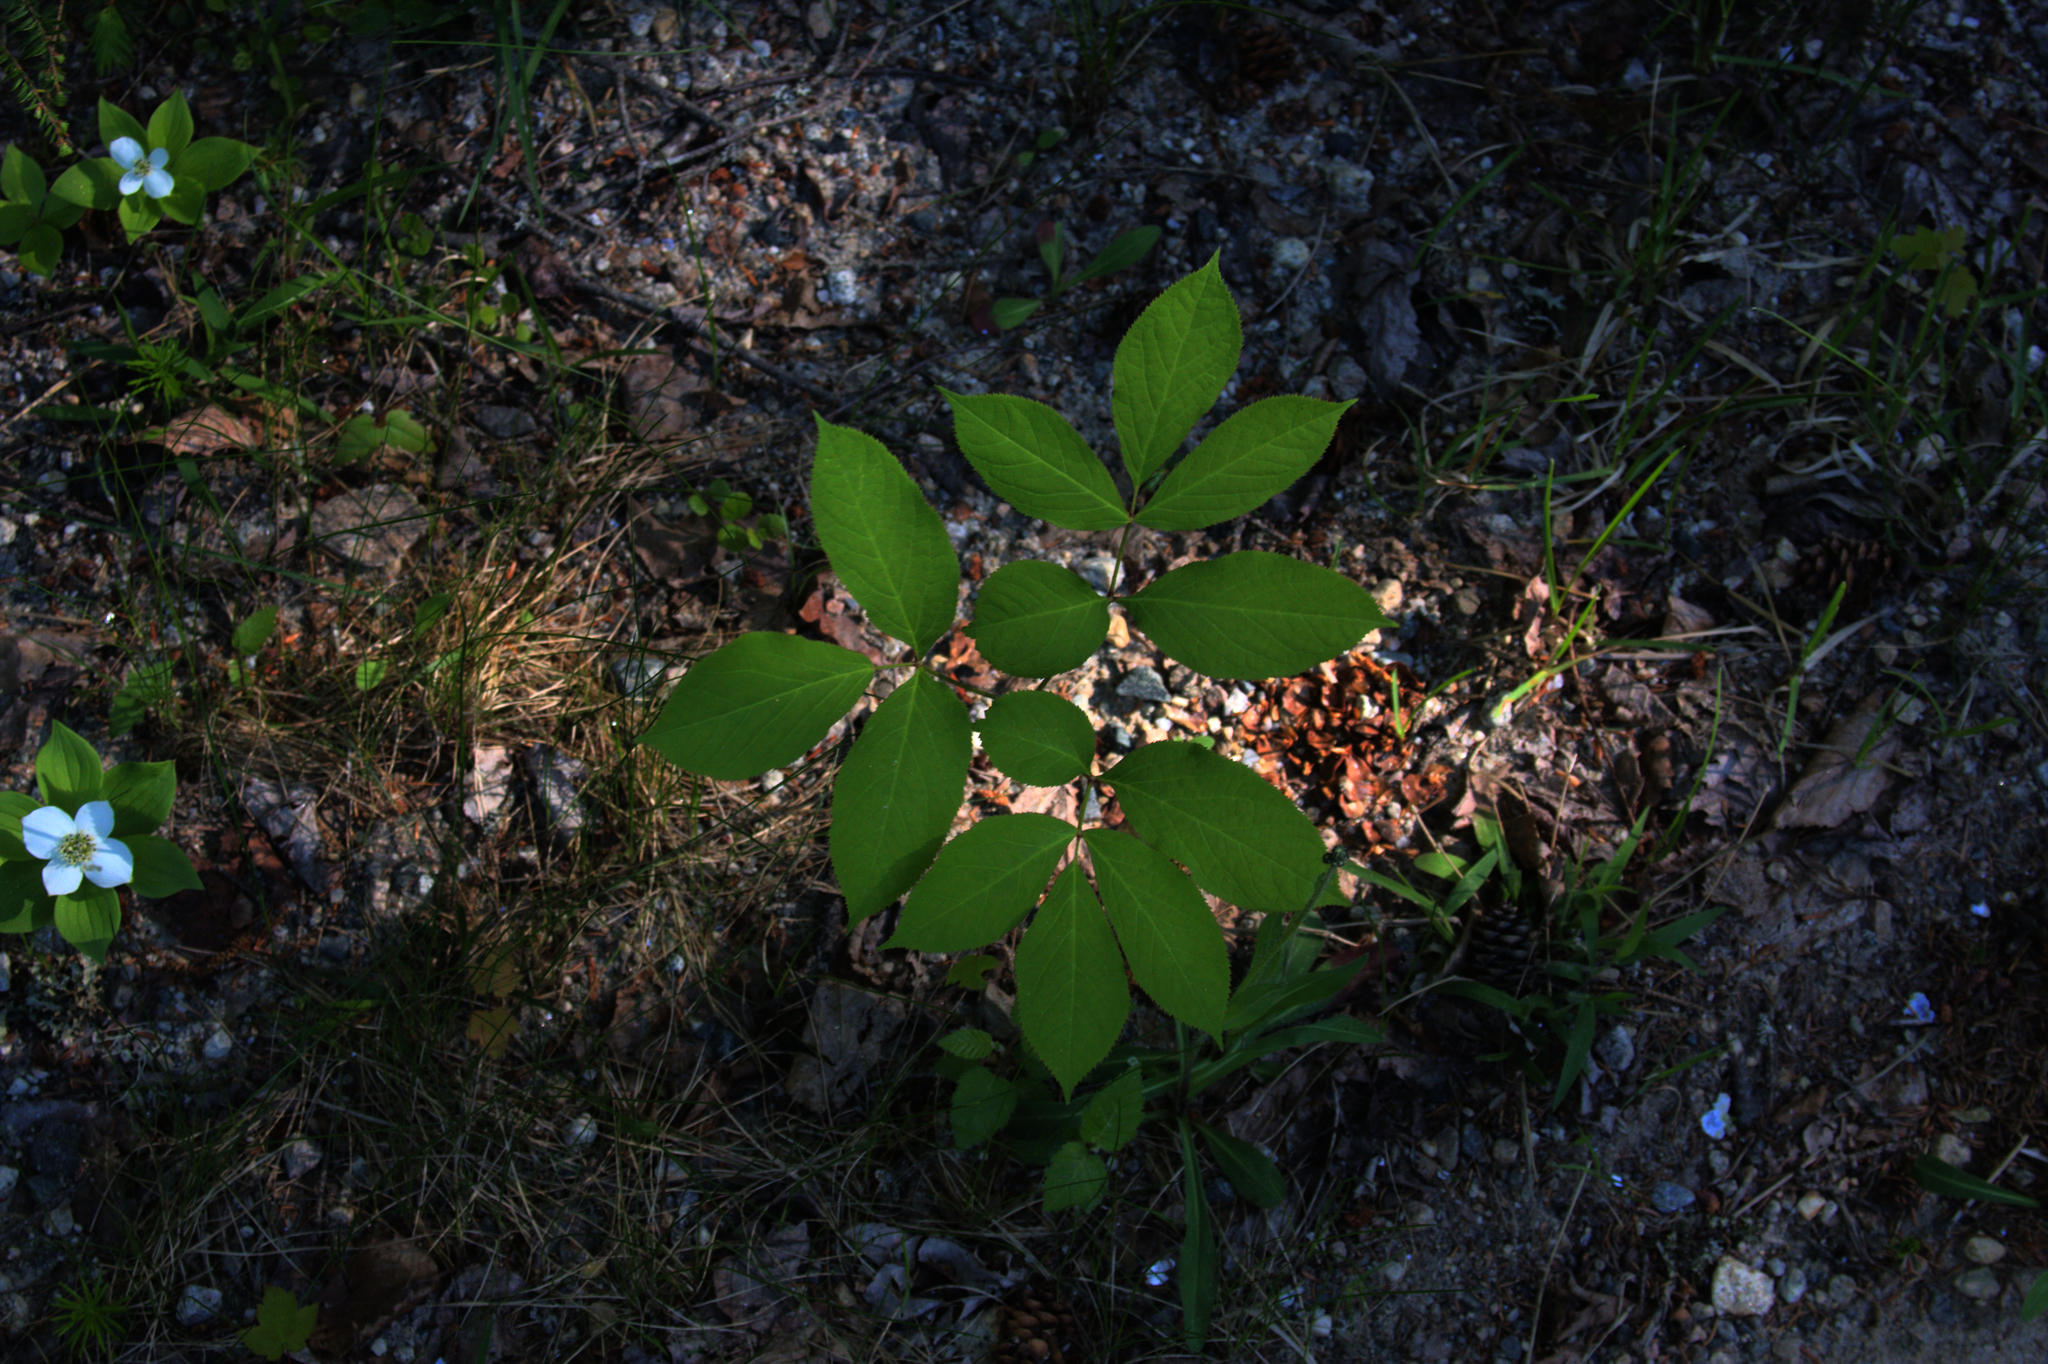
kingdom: Plantae
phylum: Tracheophyta
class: Magnoliopsida
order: Apiales
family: Araliaceae
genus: Aralia
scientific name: Aralia nudicaulis
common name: Wild sarsaparilla
